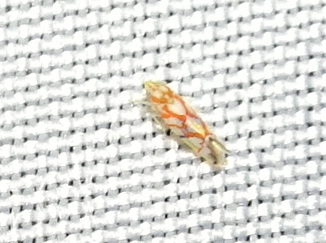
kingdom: Animalia
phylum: Arthropoda
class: Insecta
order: Hemiptera
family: Cicadellidae
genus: Erythroneura
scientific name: Erythroneura acuticephala
